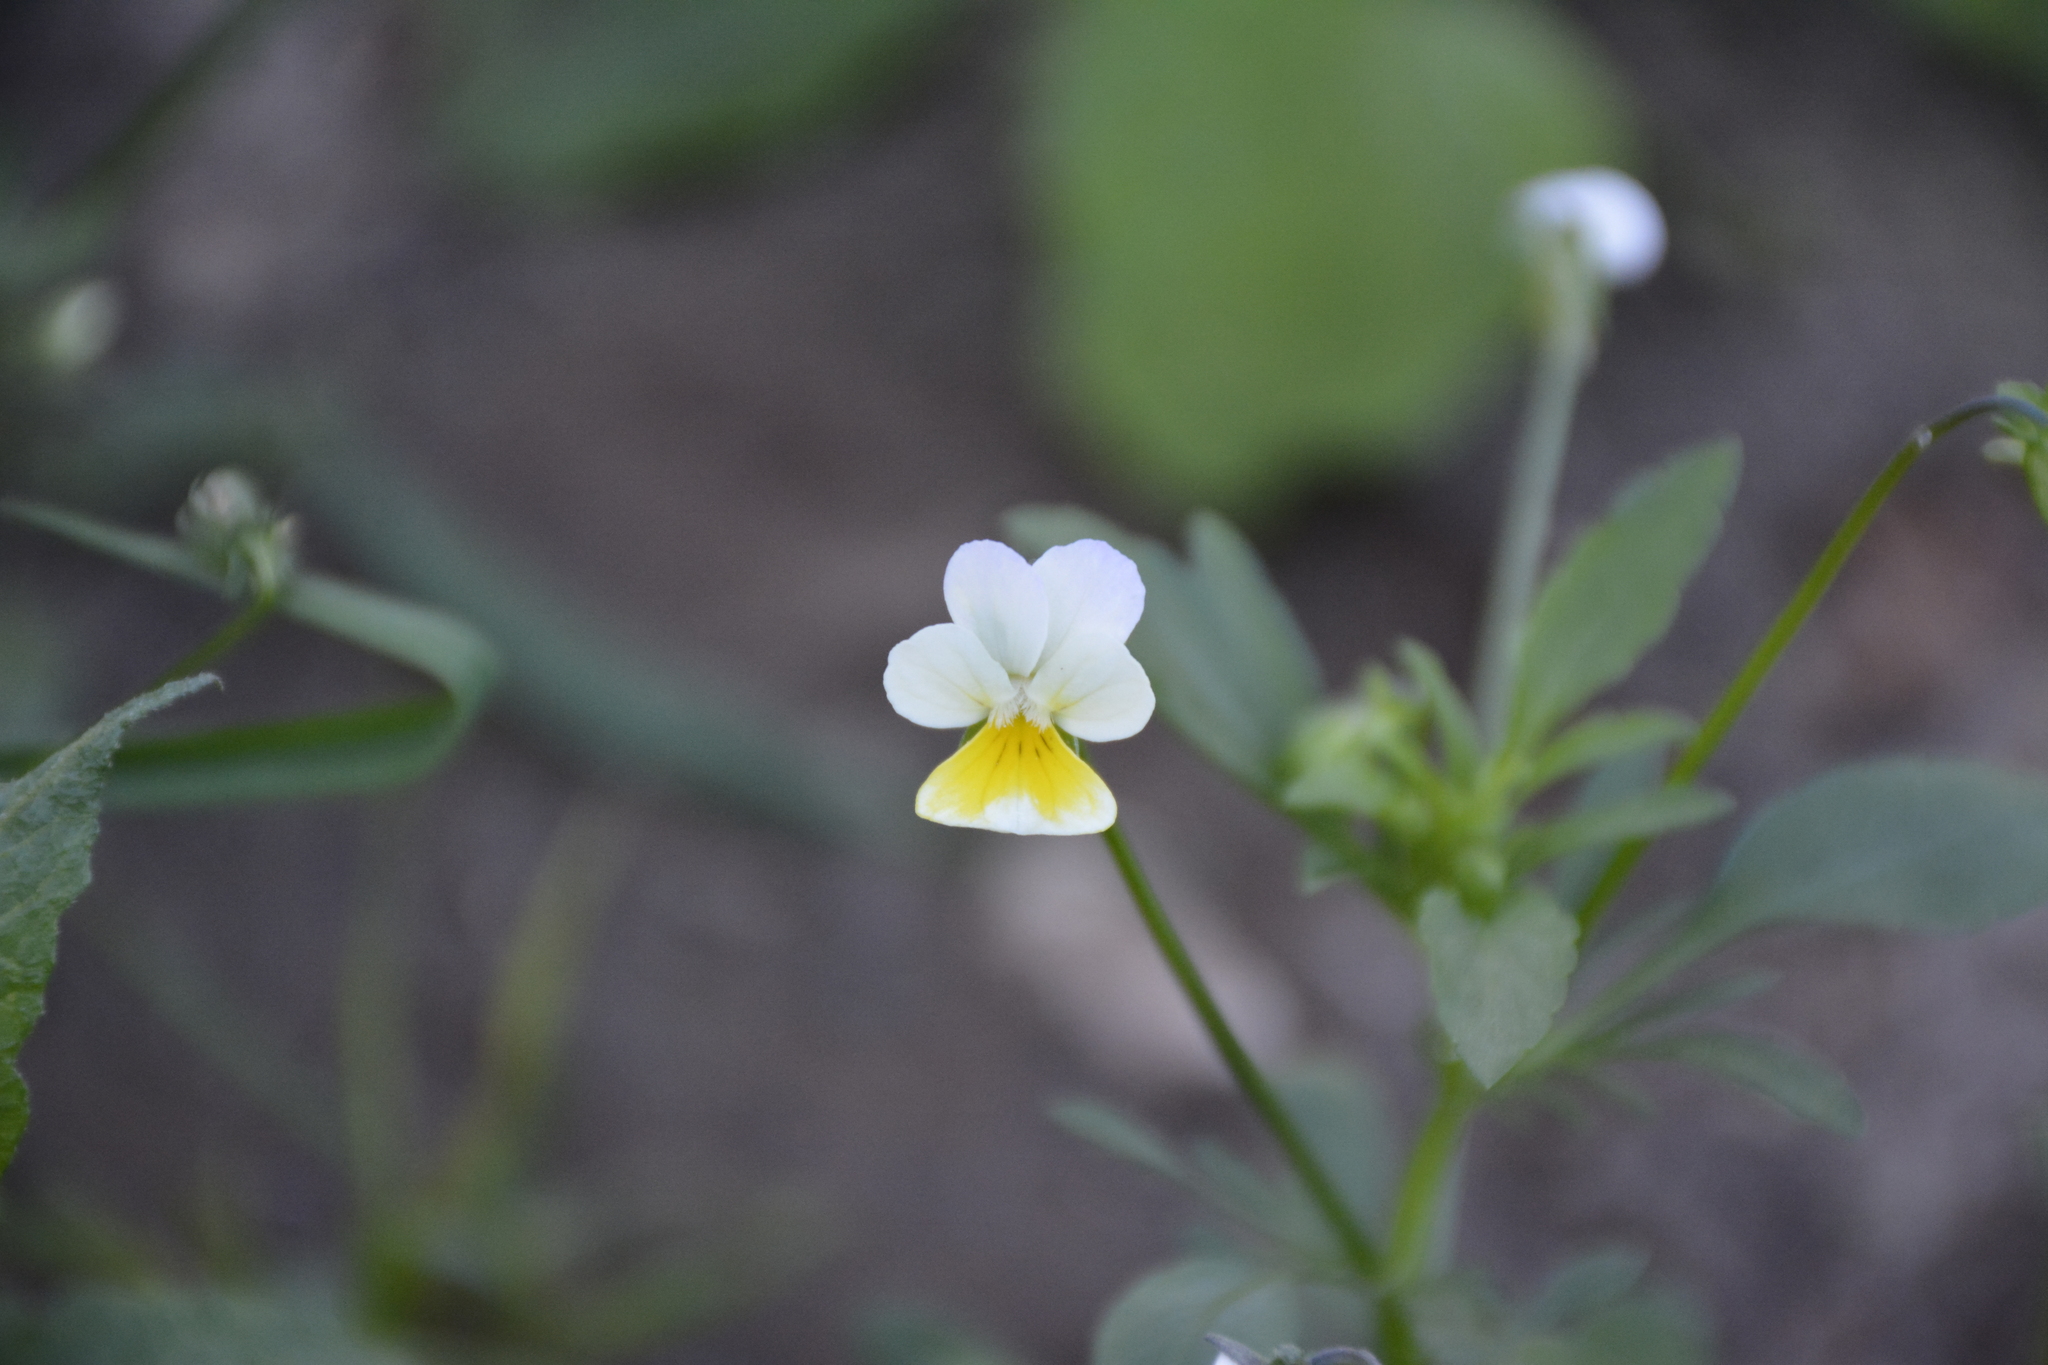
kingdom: Plantae
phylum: Tracheophyta
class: Magnoliopsida
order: Malpighiales
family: Violaceae
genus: Viola
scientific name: Viola arvensis
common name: Field pansy
